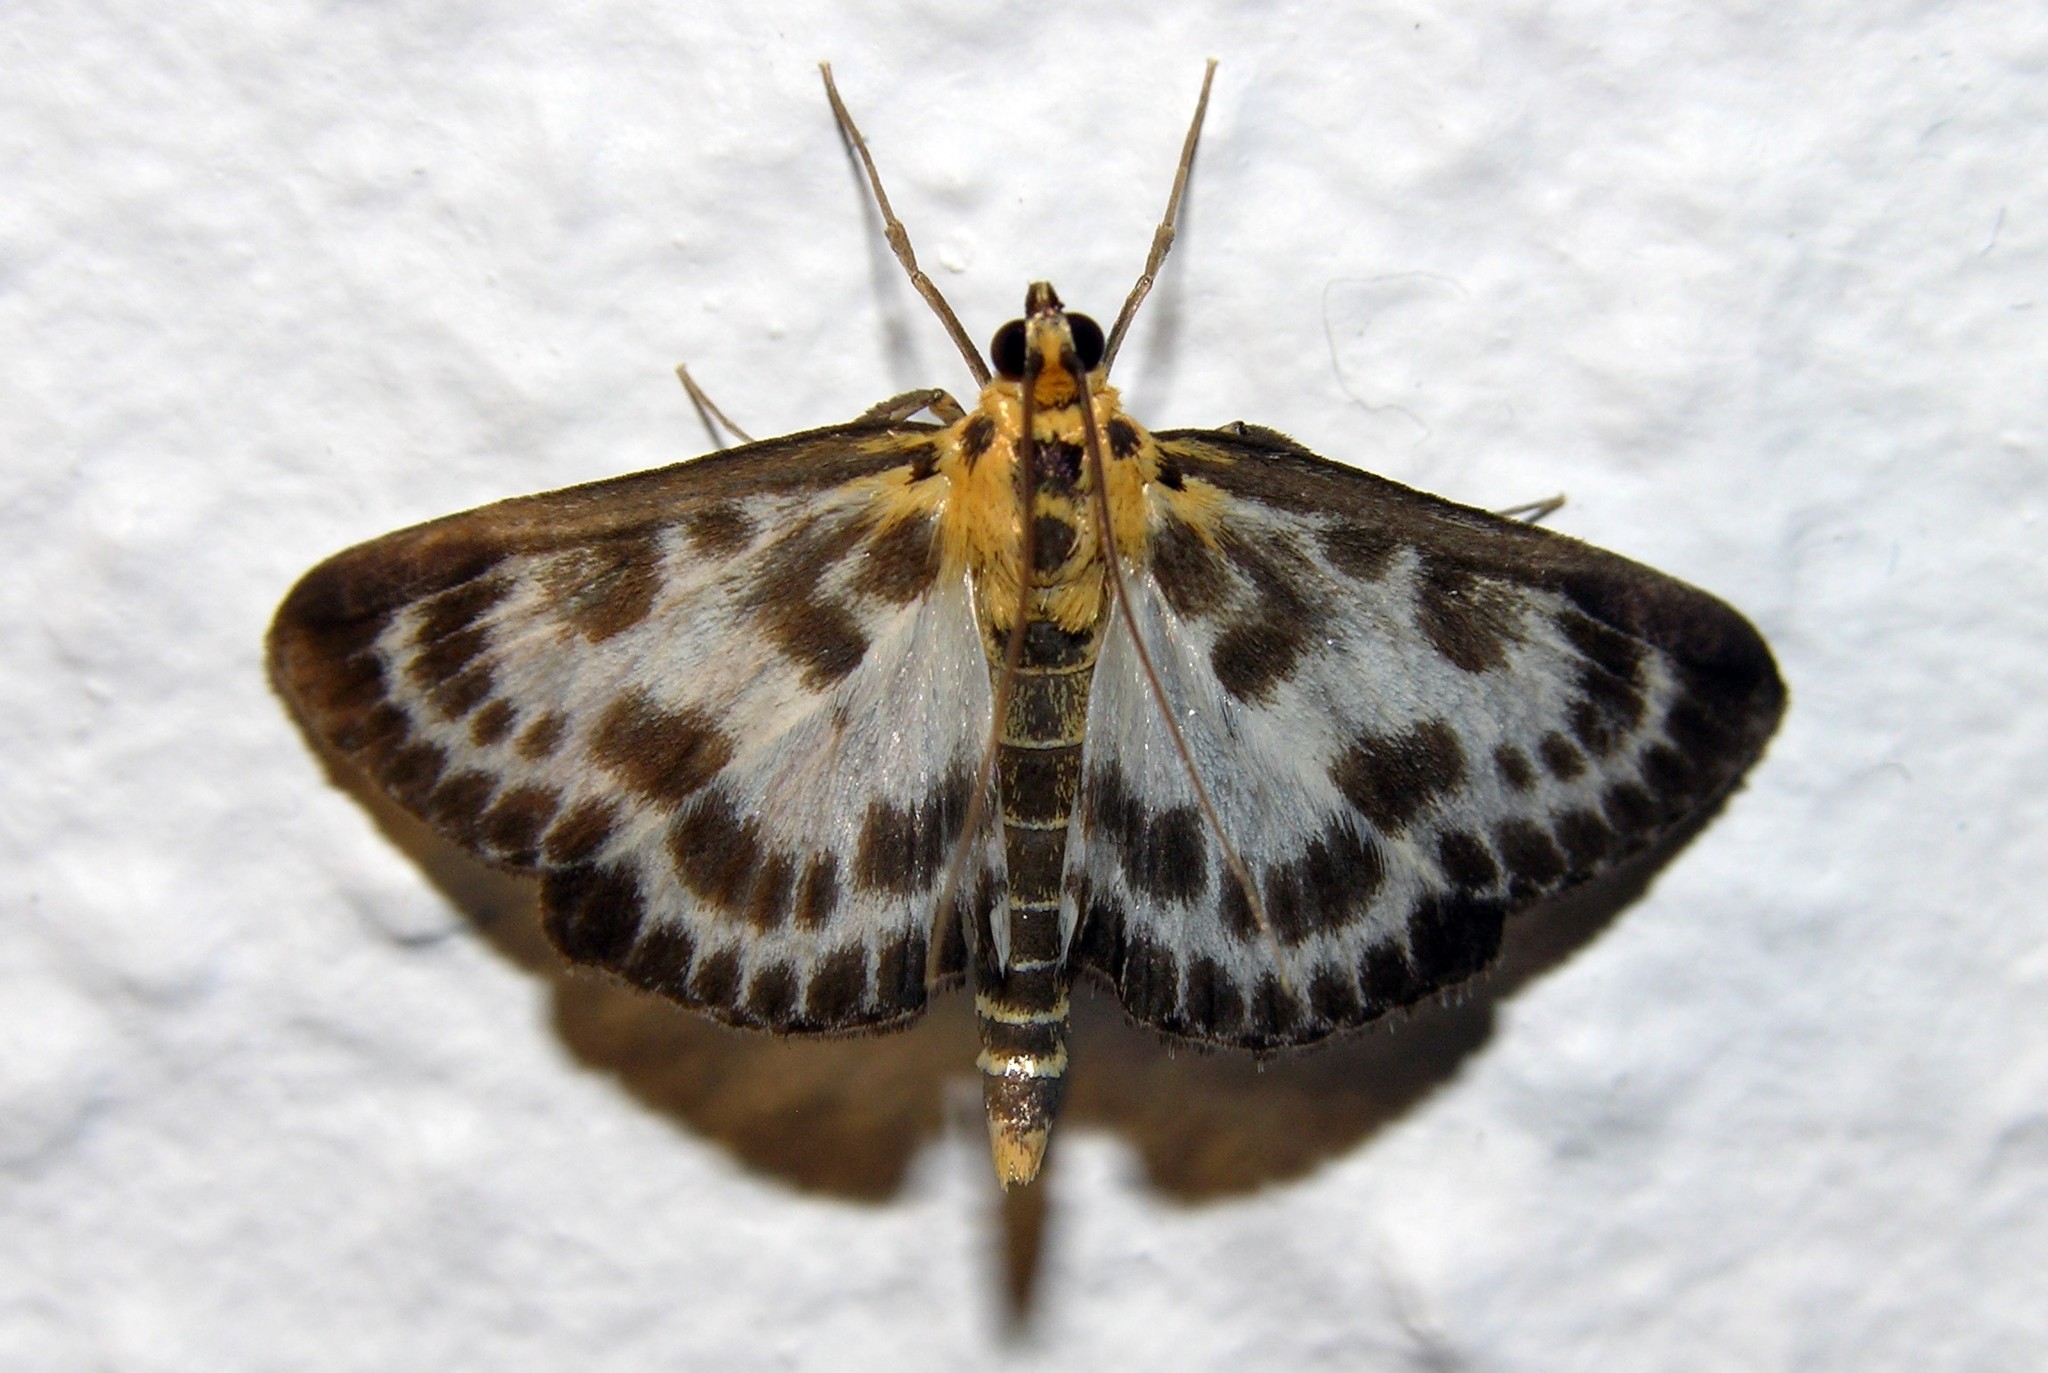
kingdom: Animalia
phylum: Arthropoda
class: Insecta
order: Lepidoptera
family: Crambidae
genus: Anania
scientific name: Anania hortulata
